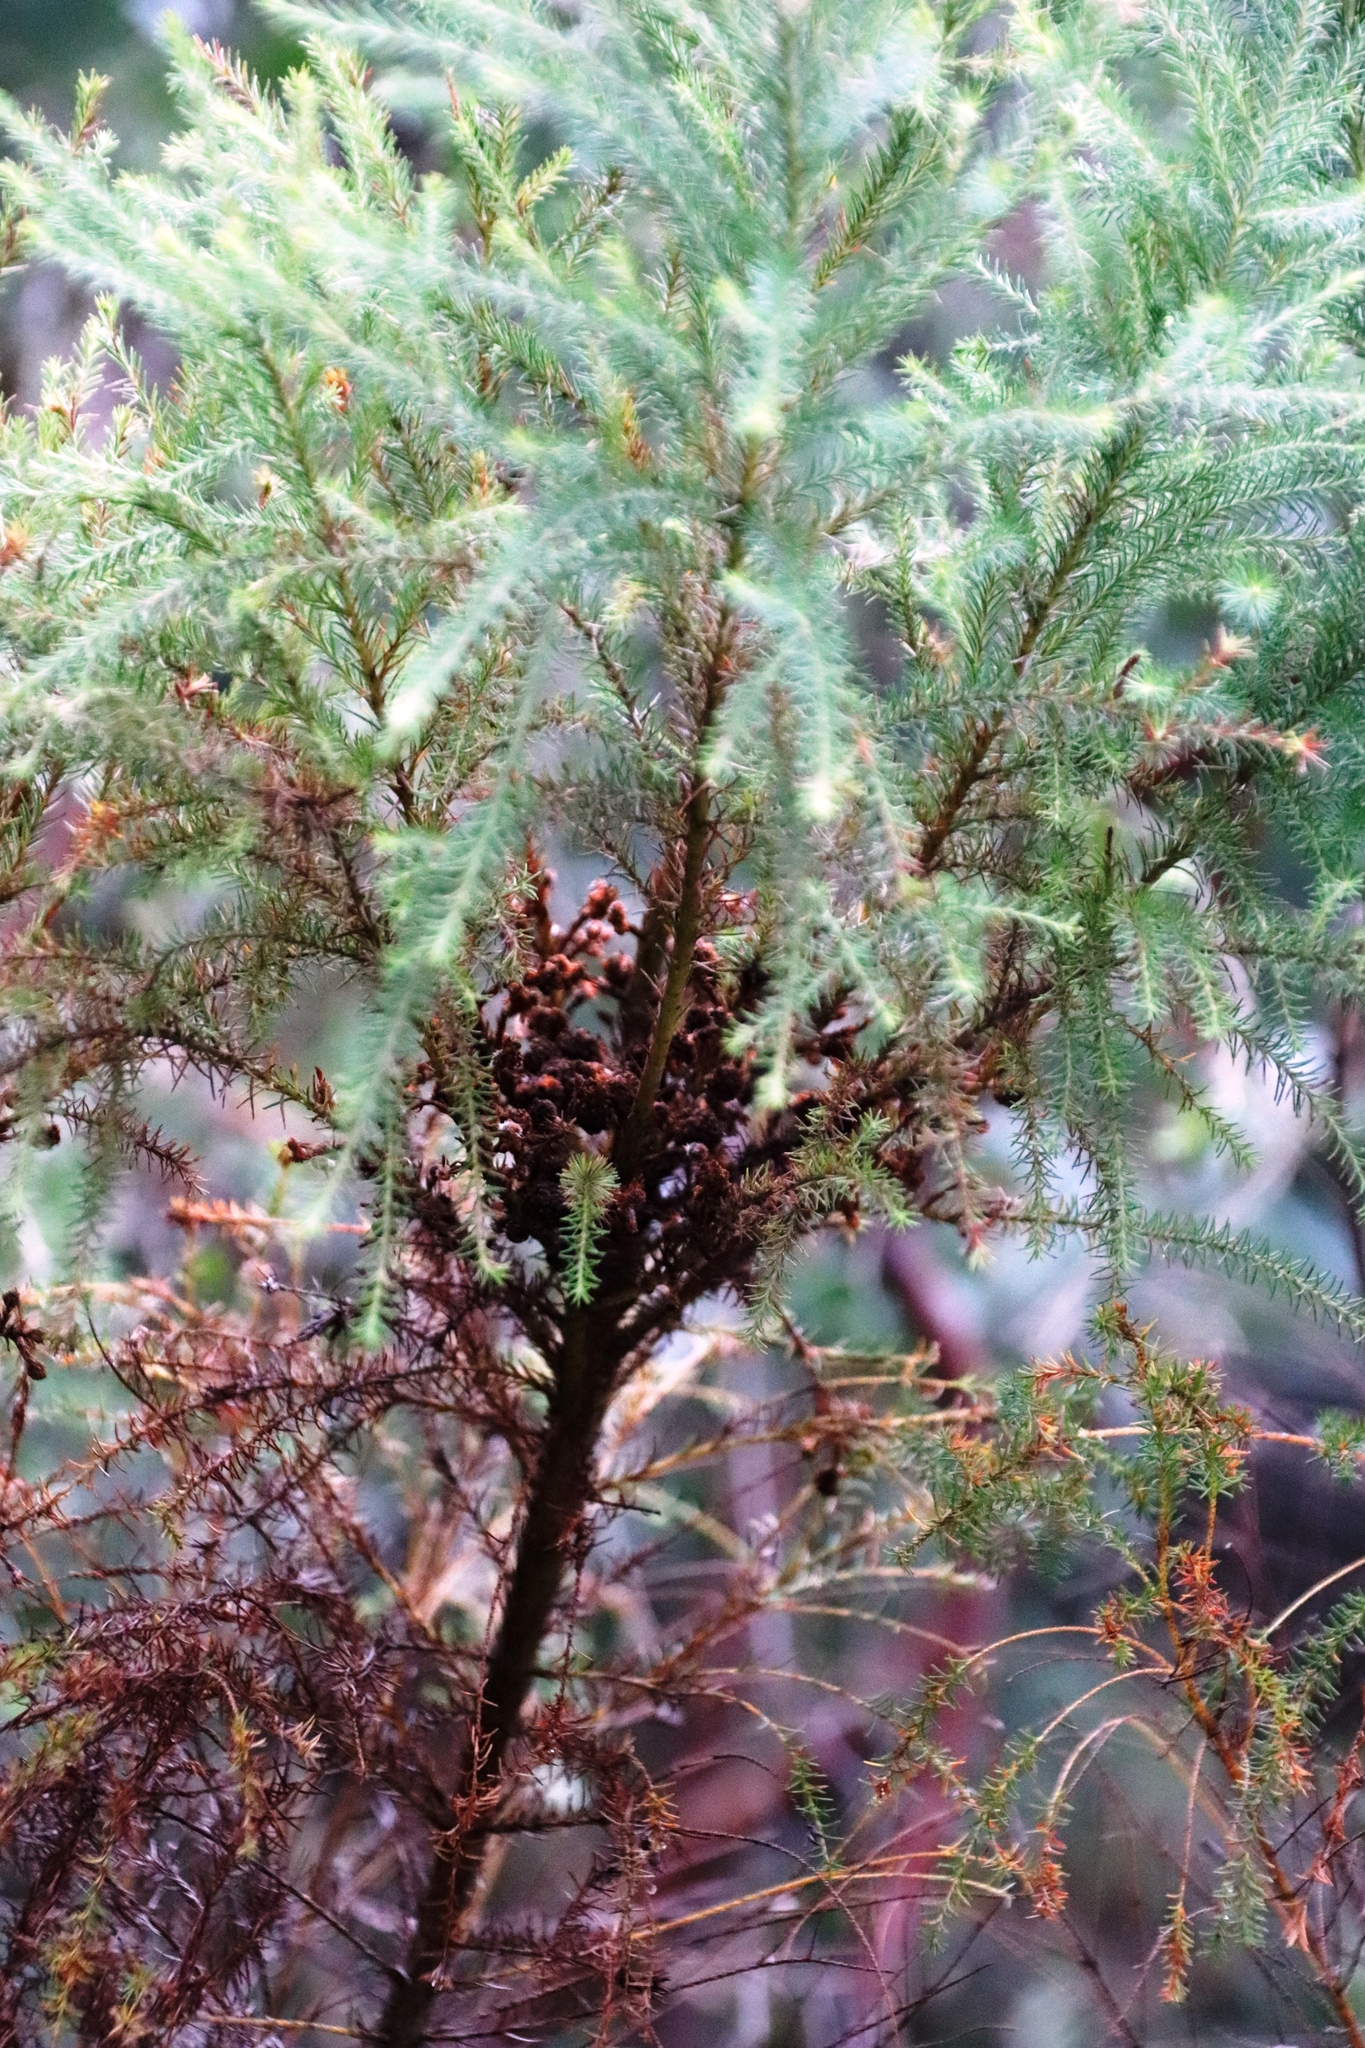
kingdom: Plantae
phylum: Tracheophyta
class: Magnoliopsida
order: Bruniales
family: Bruniaceae
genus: Berzelia
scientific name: Berzelia lanuginosa
